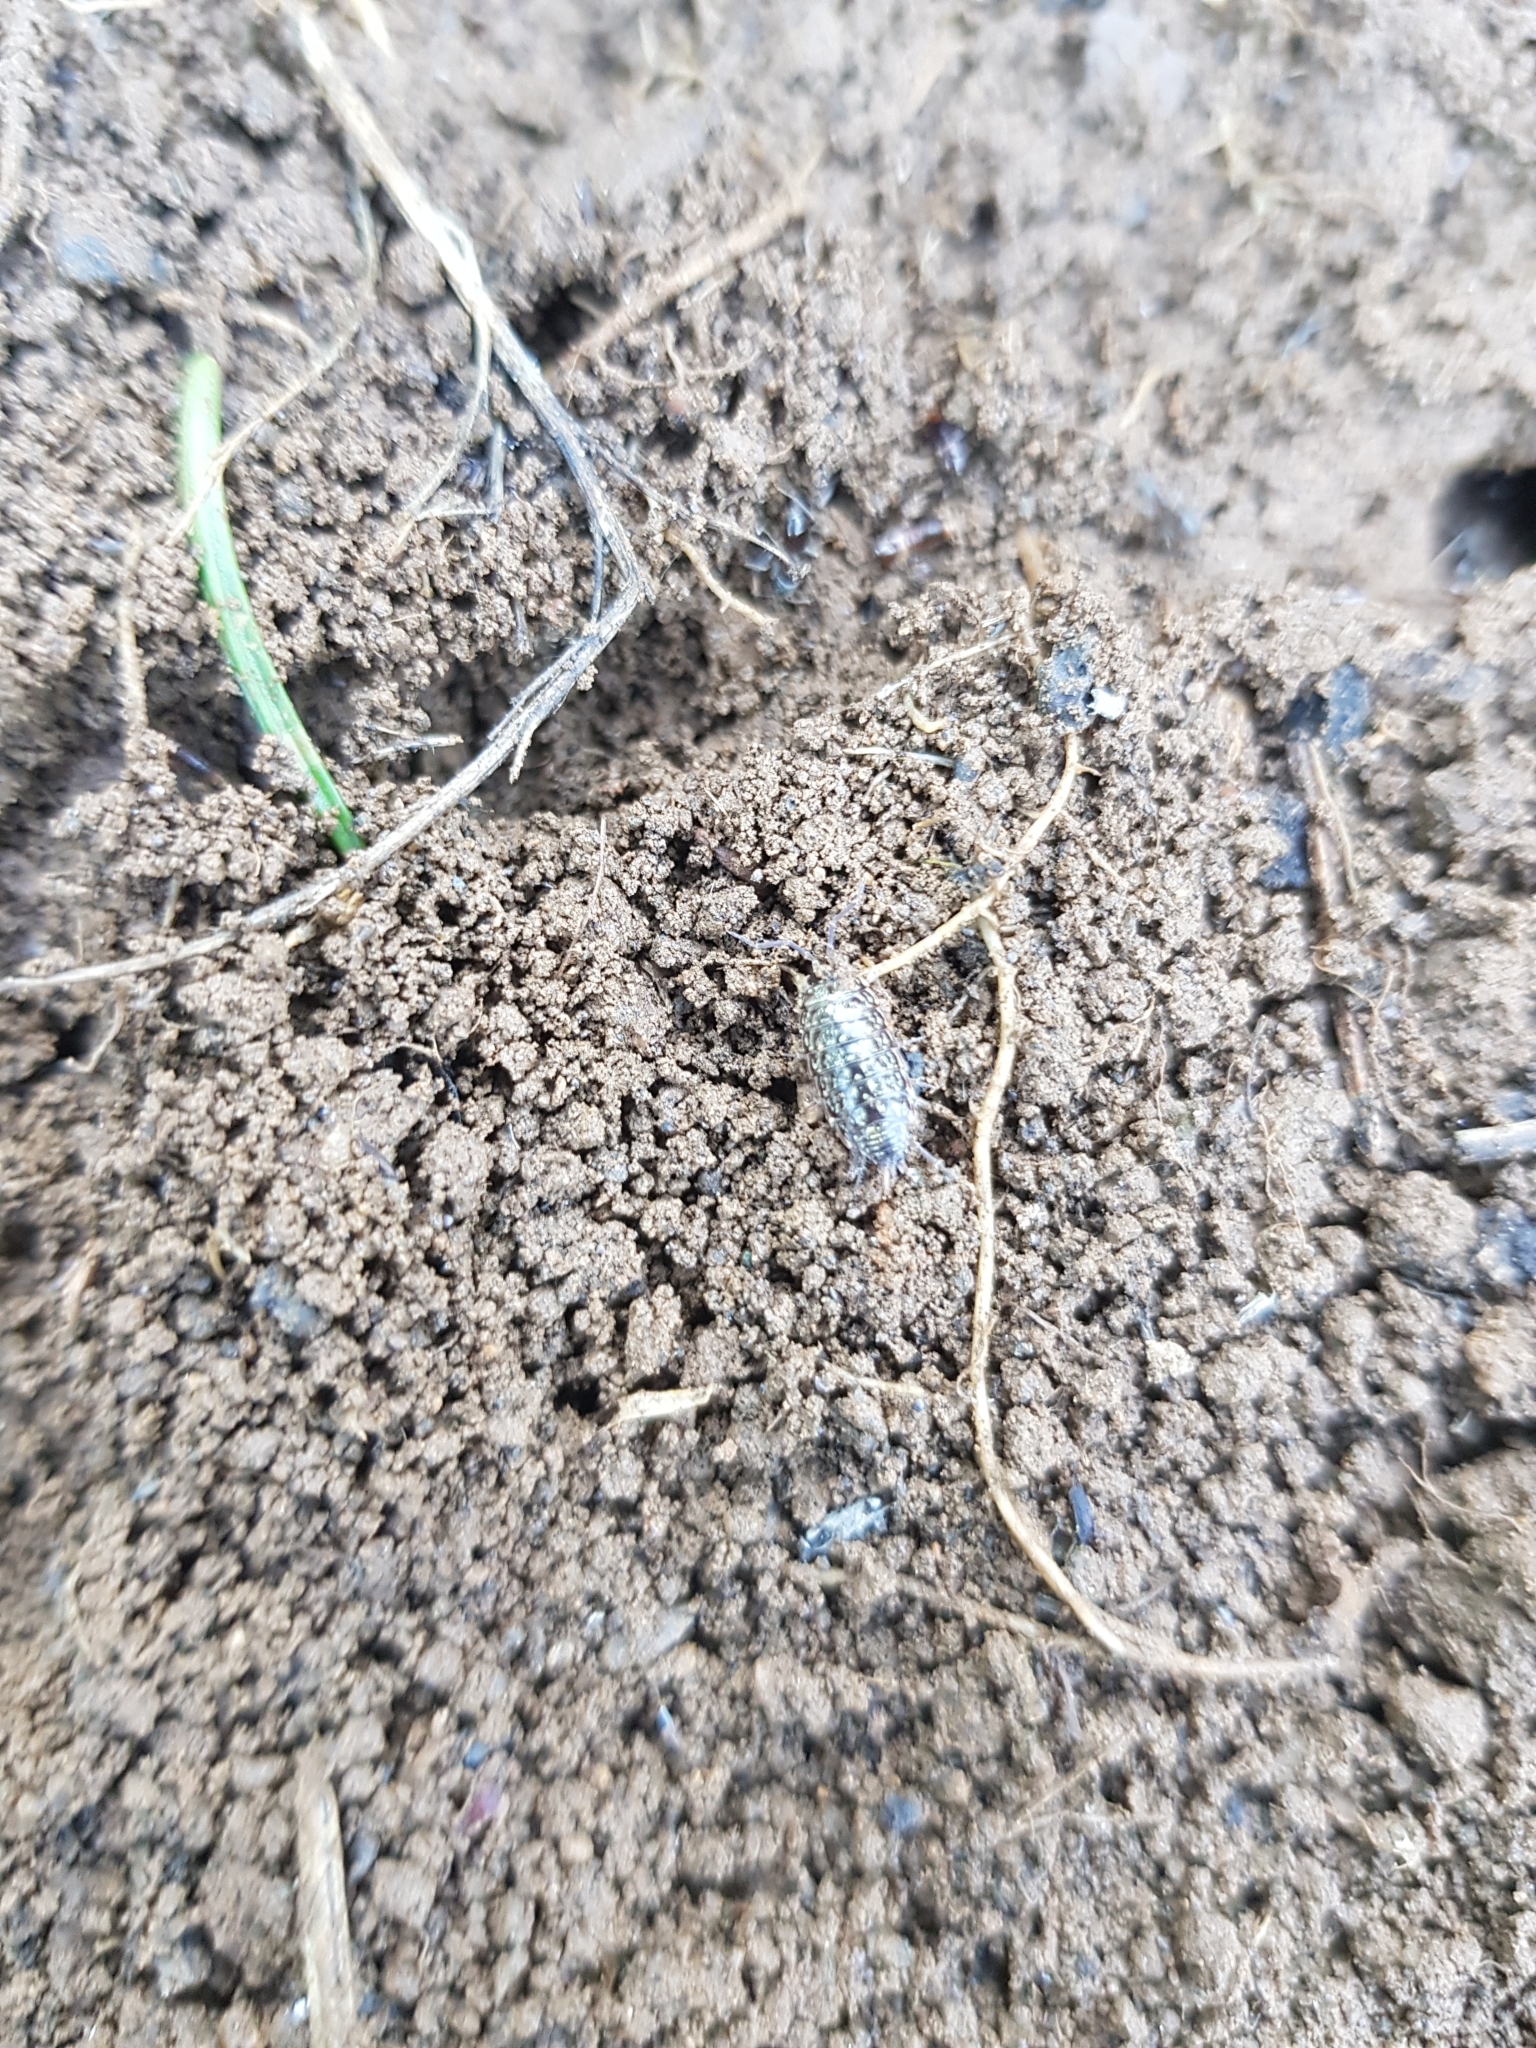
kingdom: Animalia
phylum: Arthropoda
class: Malacostraca
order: Isopoda
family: Philosciidae
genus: Philoscia
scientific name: Philoscia muscorum
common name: Common striped woodlouse
